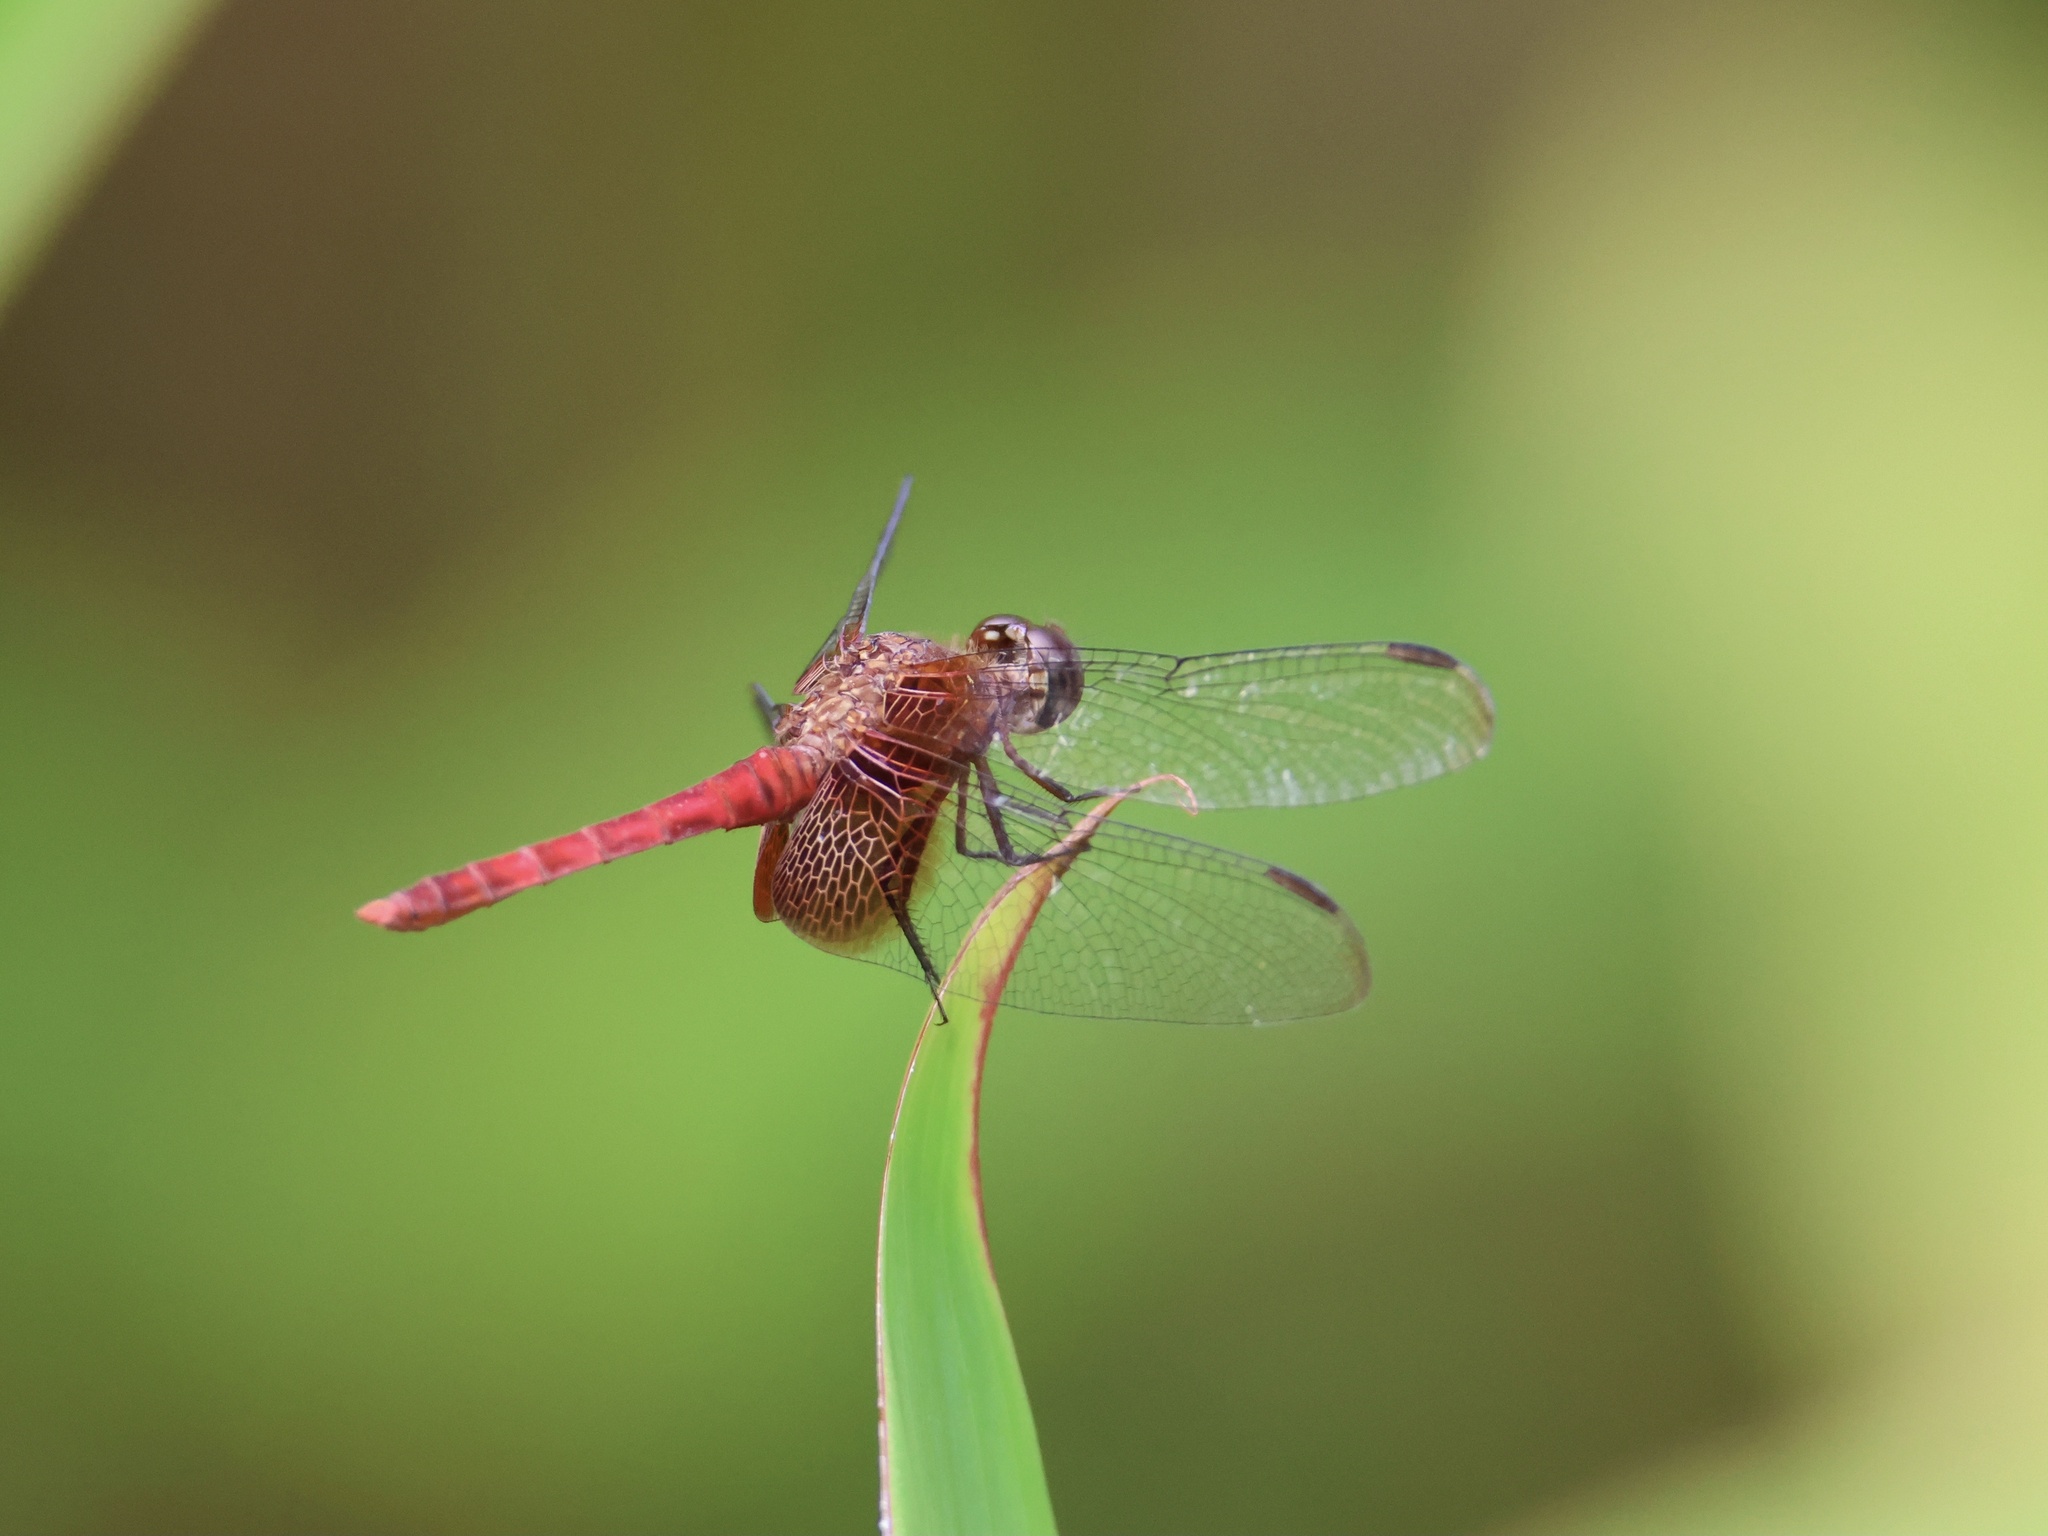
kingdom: Animalia
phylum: Arthropoda
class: Insecta
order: Odonata
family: Libellulidae
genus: Erythrodiplax
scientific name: Erythrodiplax fervida
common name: Red-mantled dragonlet
